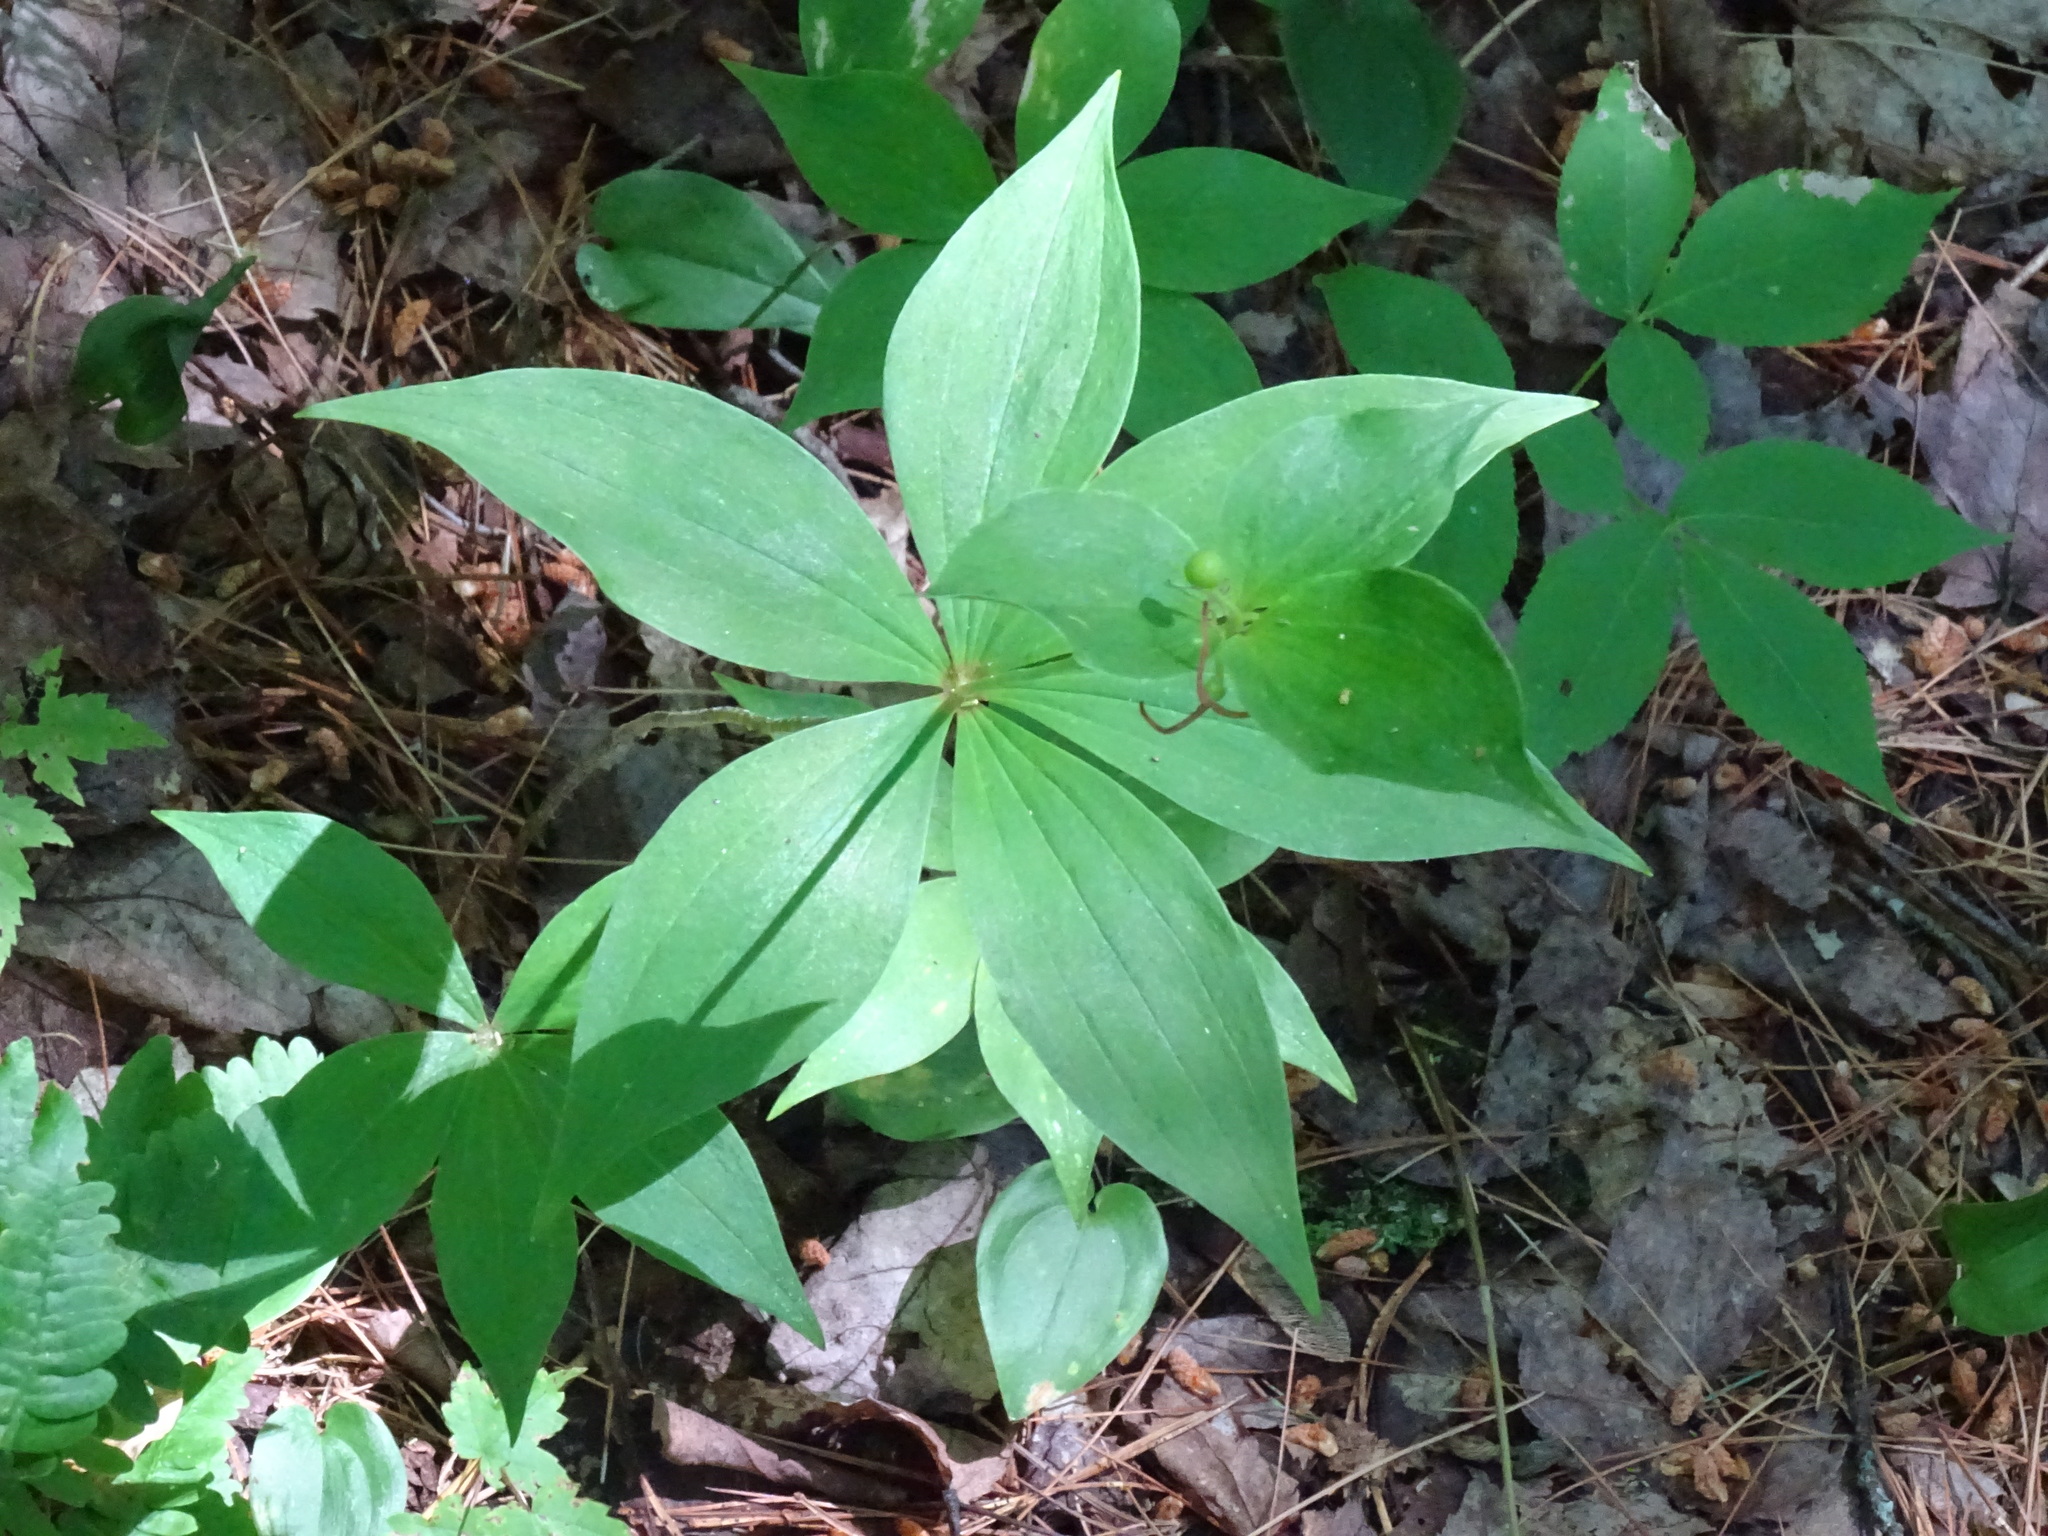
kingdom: Plantae
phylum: Tracheophyta
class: Liliopsida
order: Liliales
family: Liliaceae
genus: Medeola
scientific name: Medeola virginiana
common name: Indian cucumber-root
